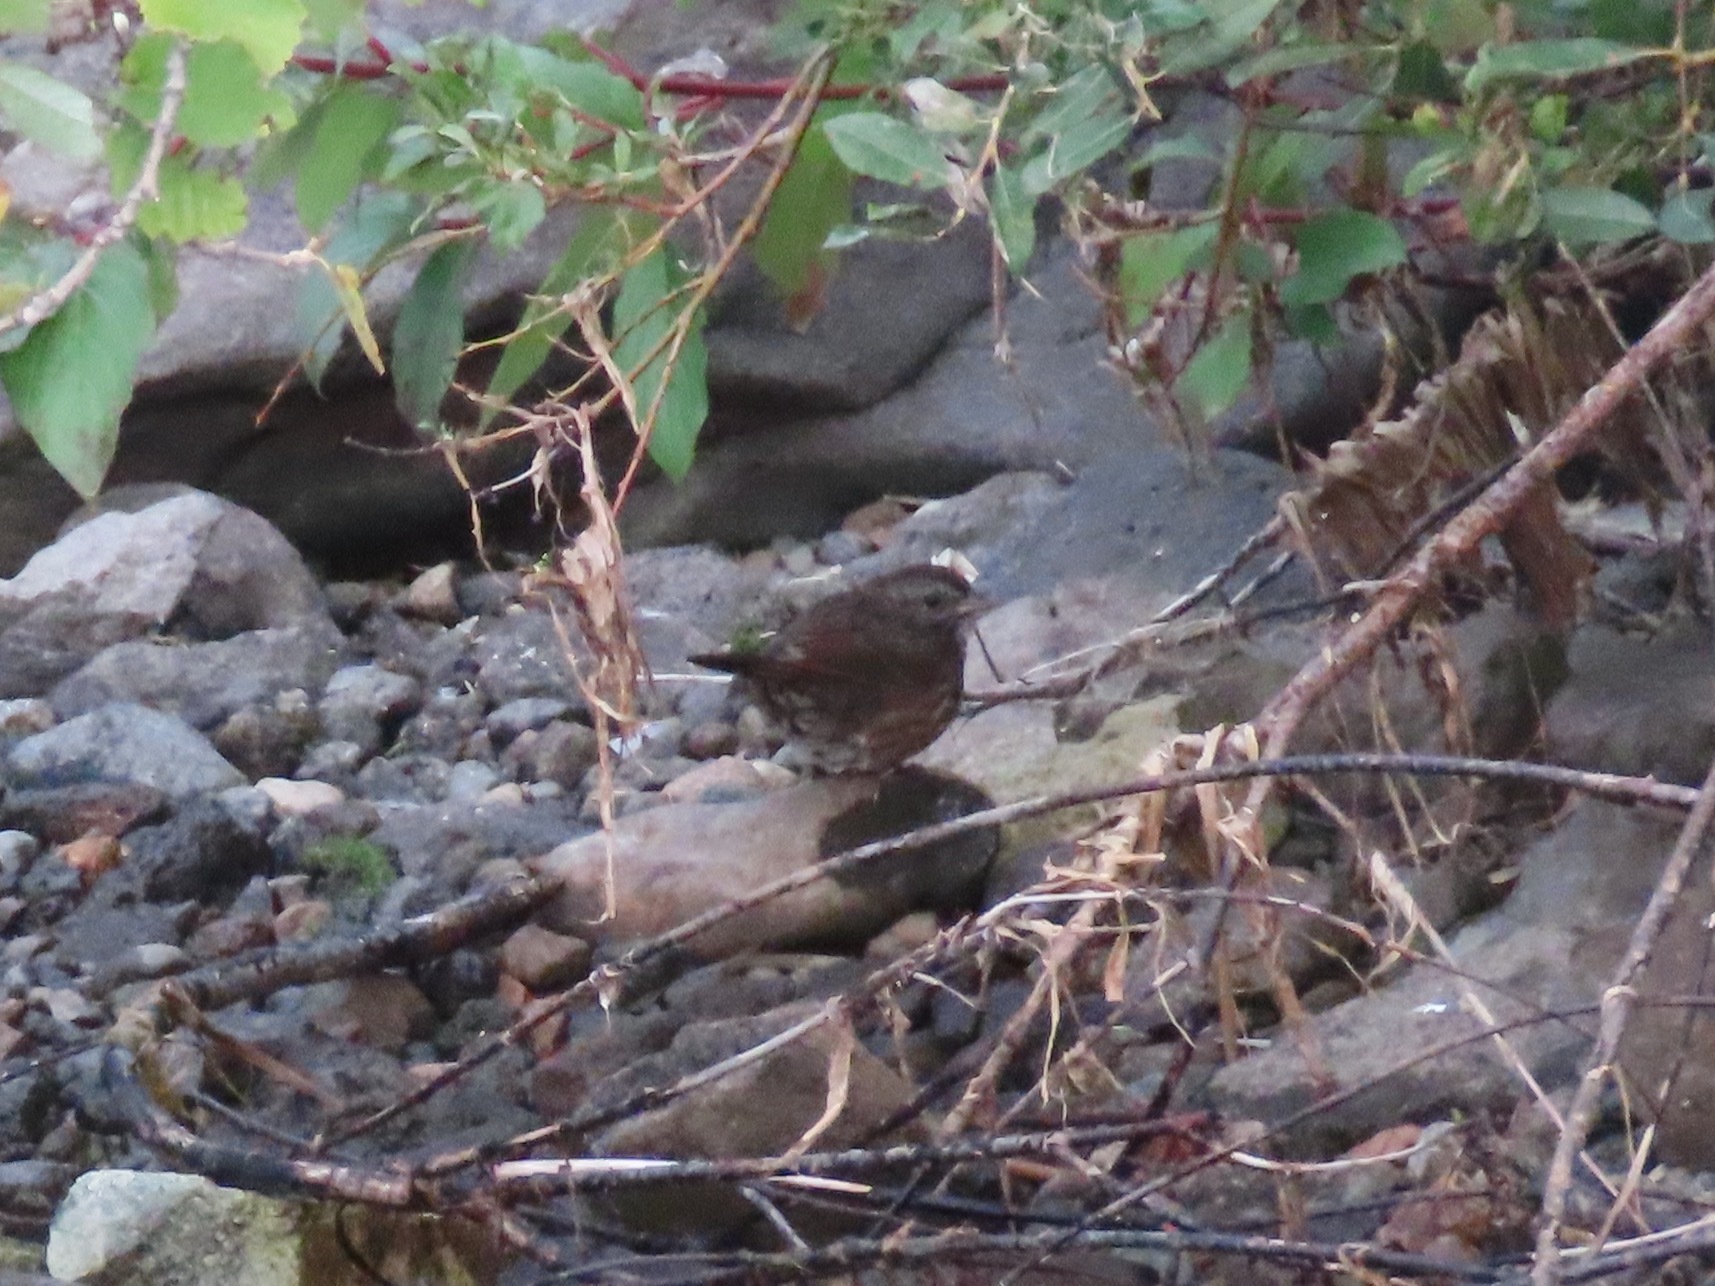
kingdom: Animalia
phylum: Chordata
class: Aves
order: Passeriformes
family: Passerellidae
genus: Melospiza
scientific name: Melospiza melodia
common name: Song sparrow
